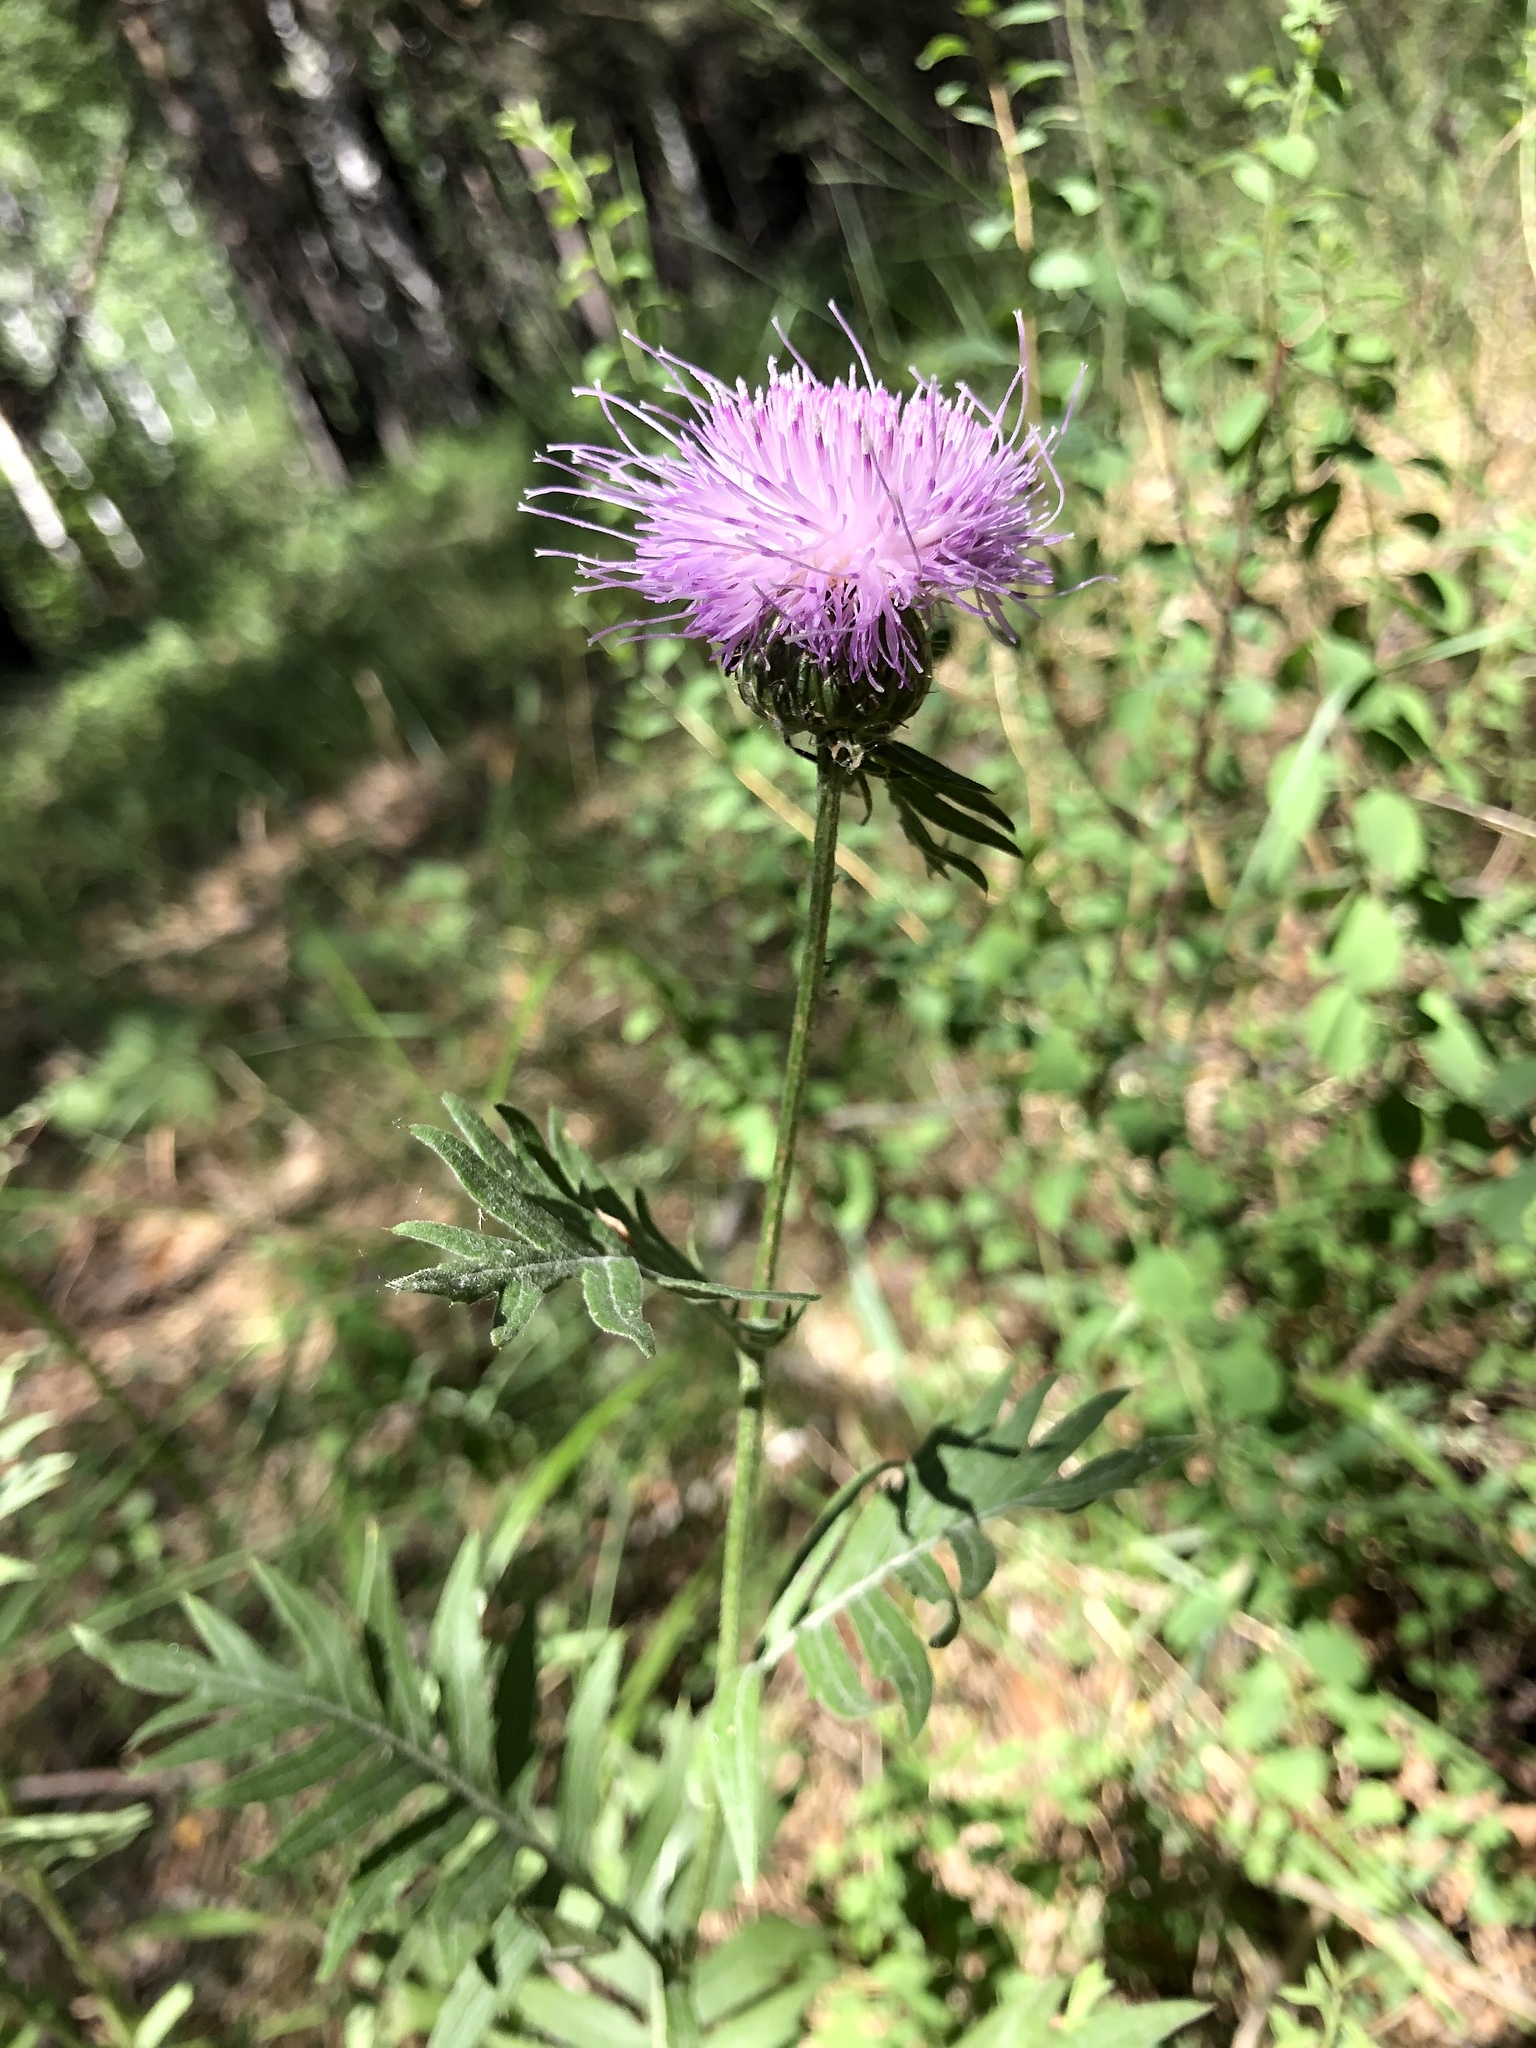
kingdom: Plantae
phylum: Tracheophyta
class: Magnoliopsida
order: Asterales
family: Asteraceae
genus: Klasea
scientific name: Klasea radiata
